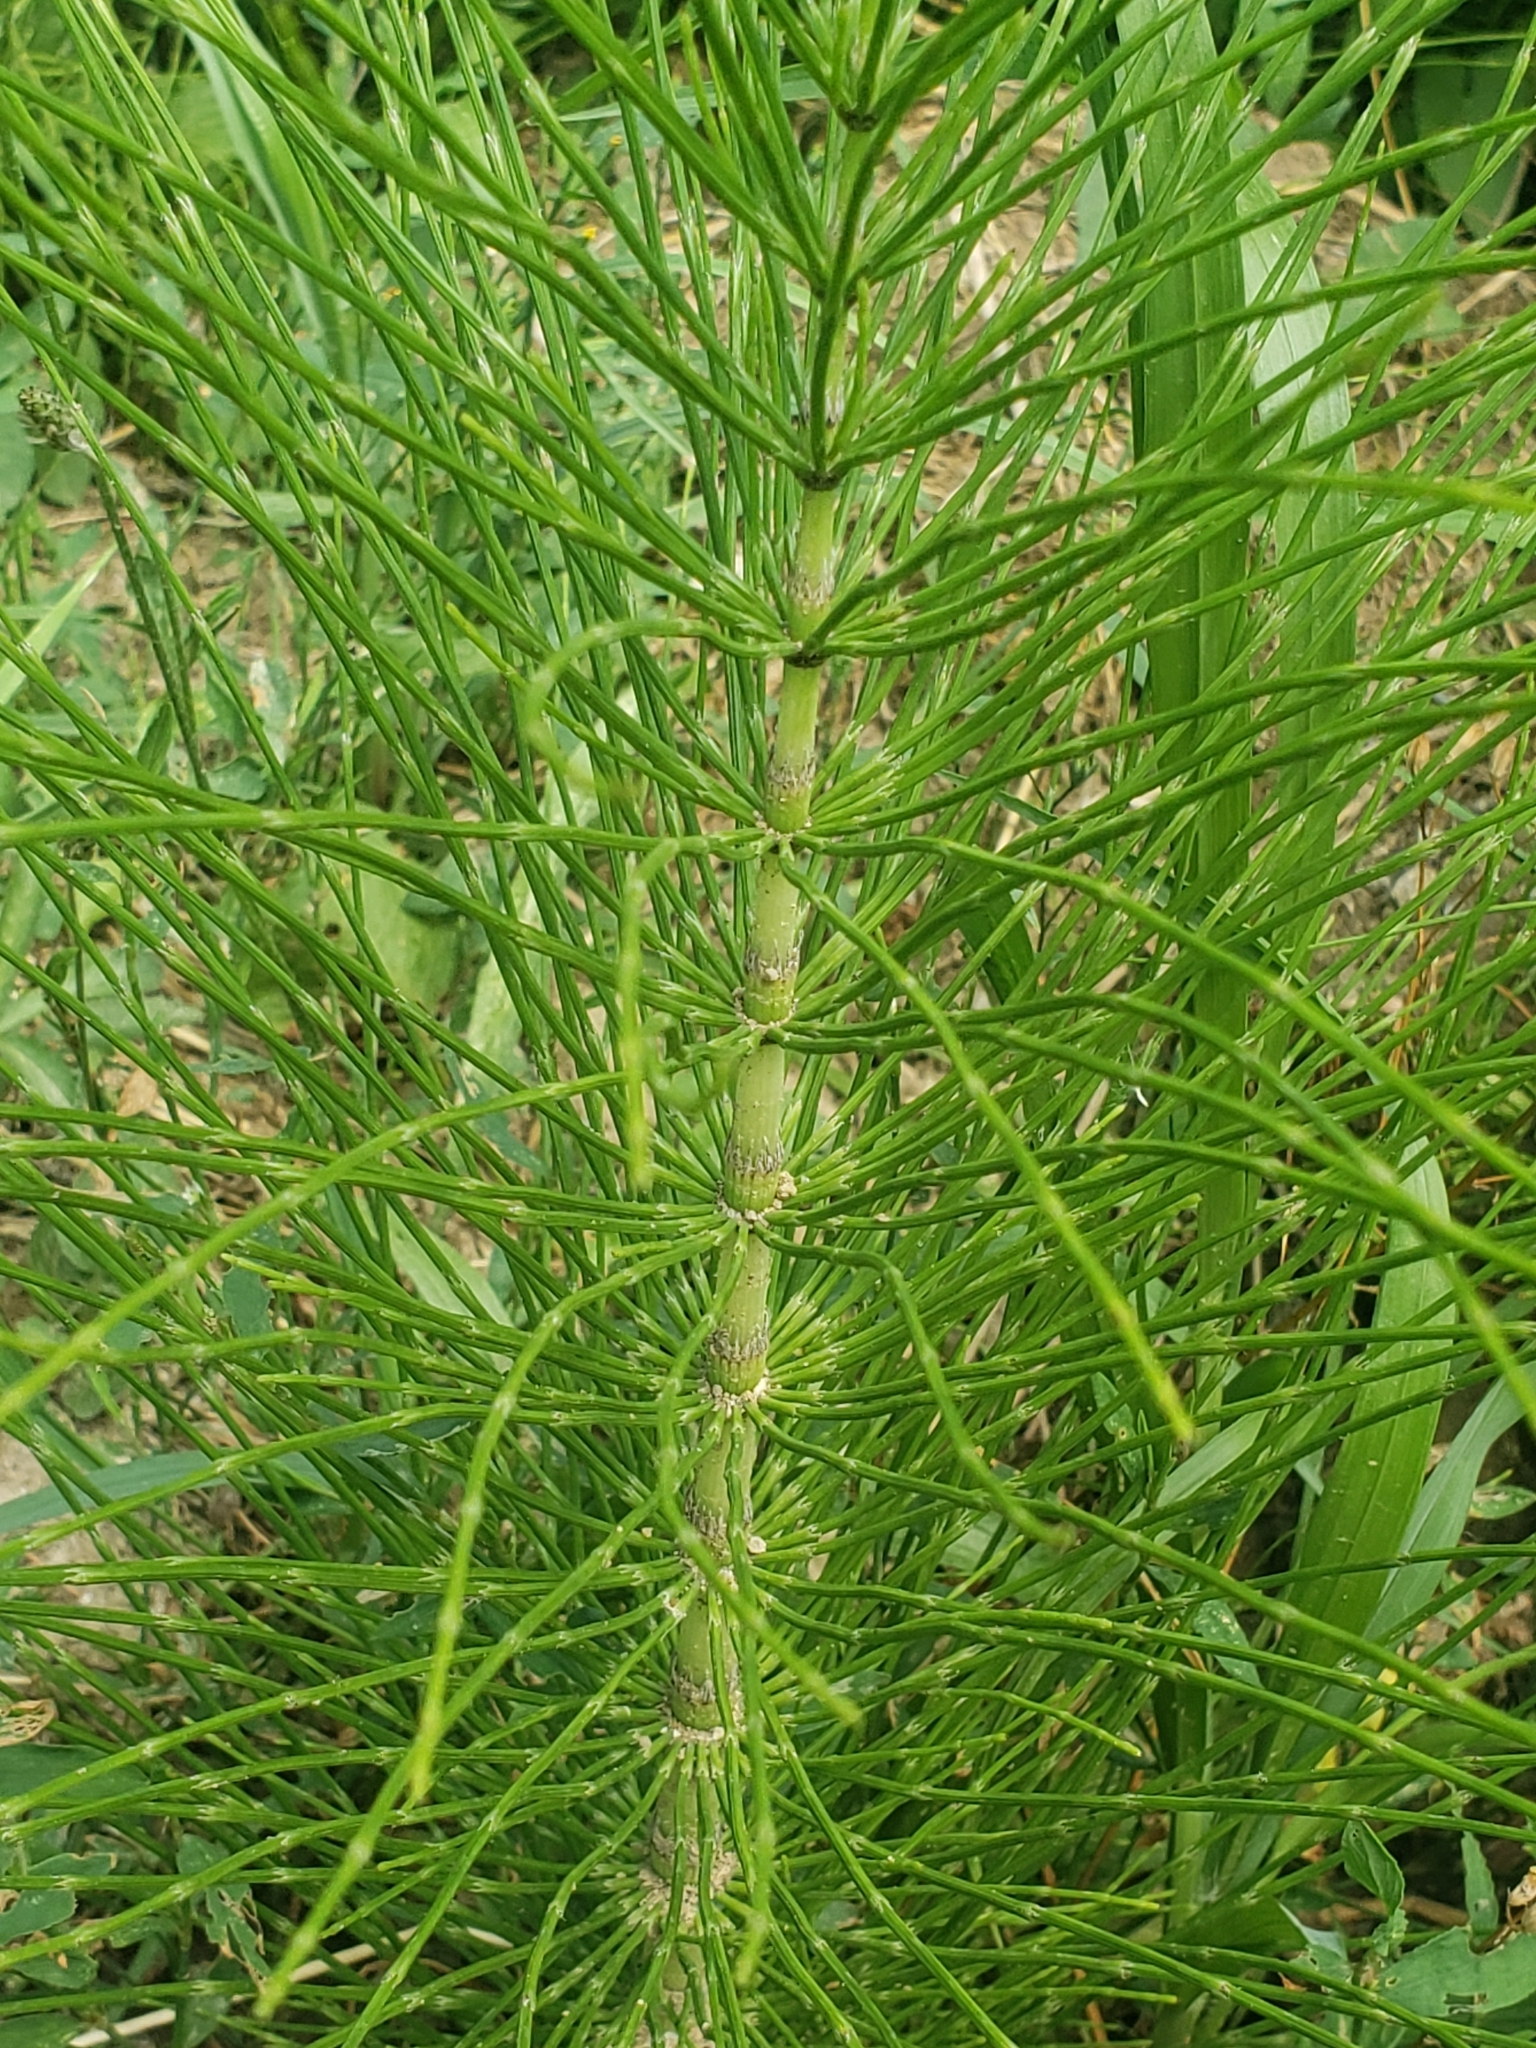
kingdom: Plantae
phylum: Tracheophyta
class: Polypodiopsida
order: Equisetales
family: Equisetaceae
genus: Equisetum
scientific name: Equisetum telmateia
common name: Great horsetail
